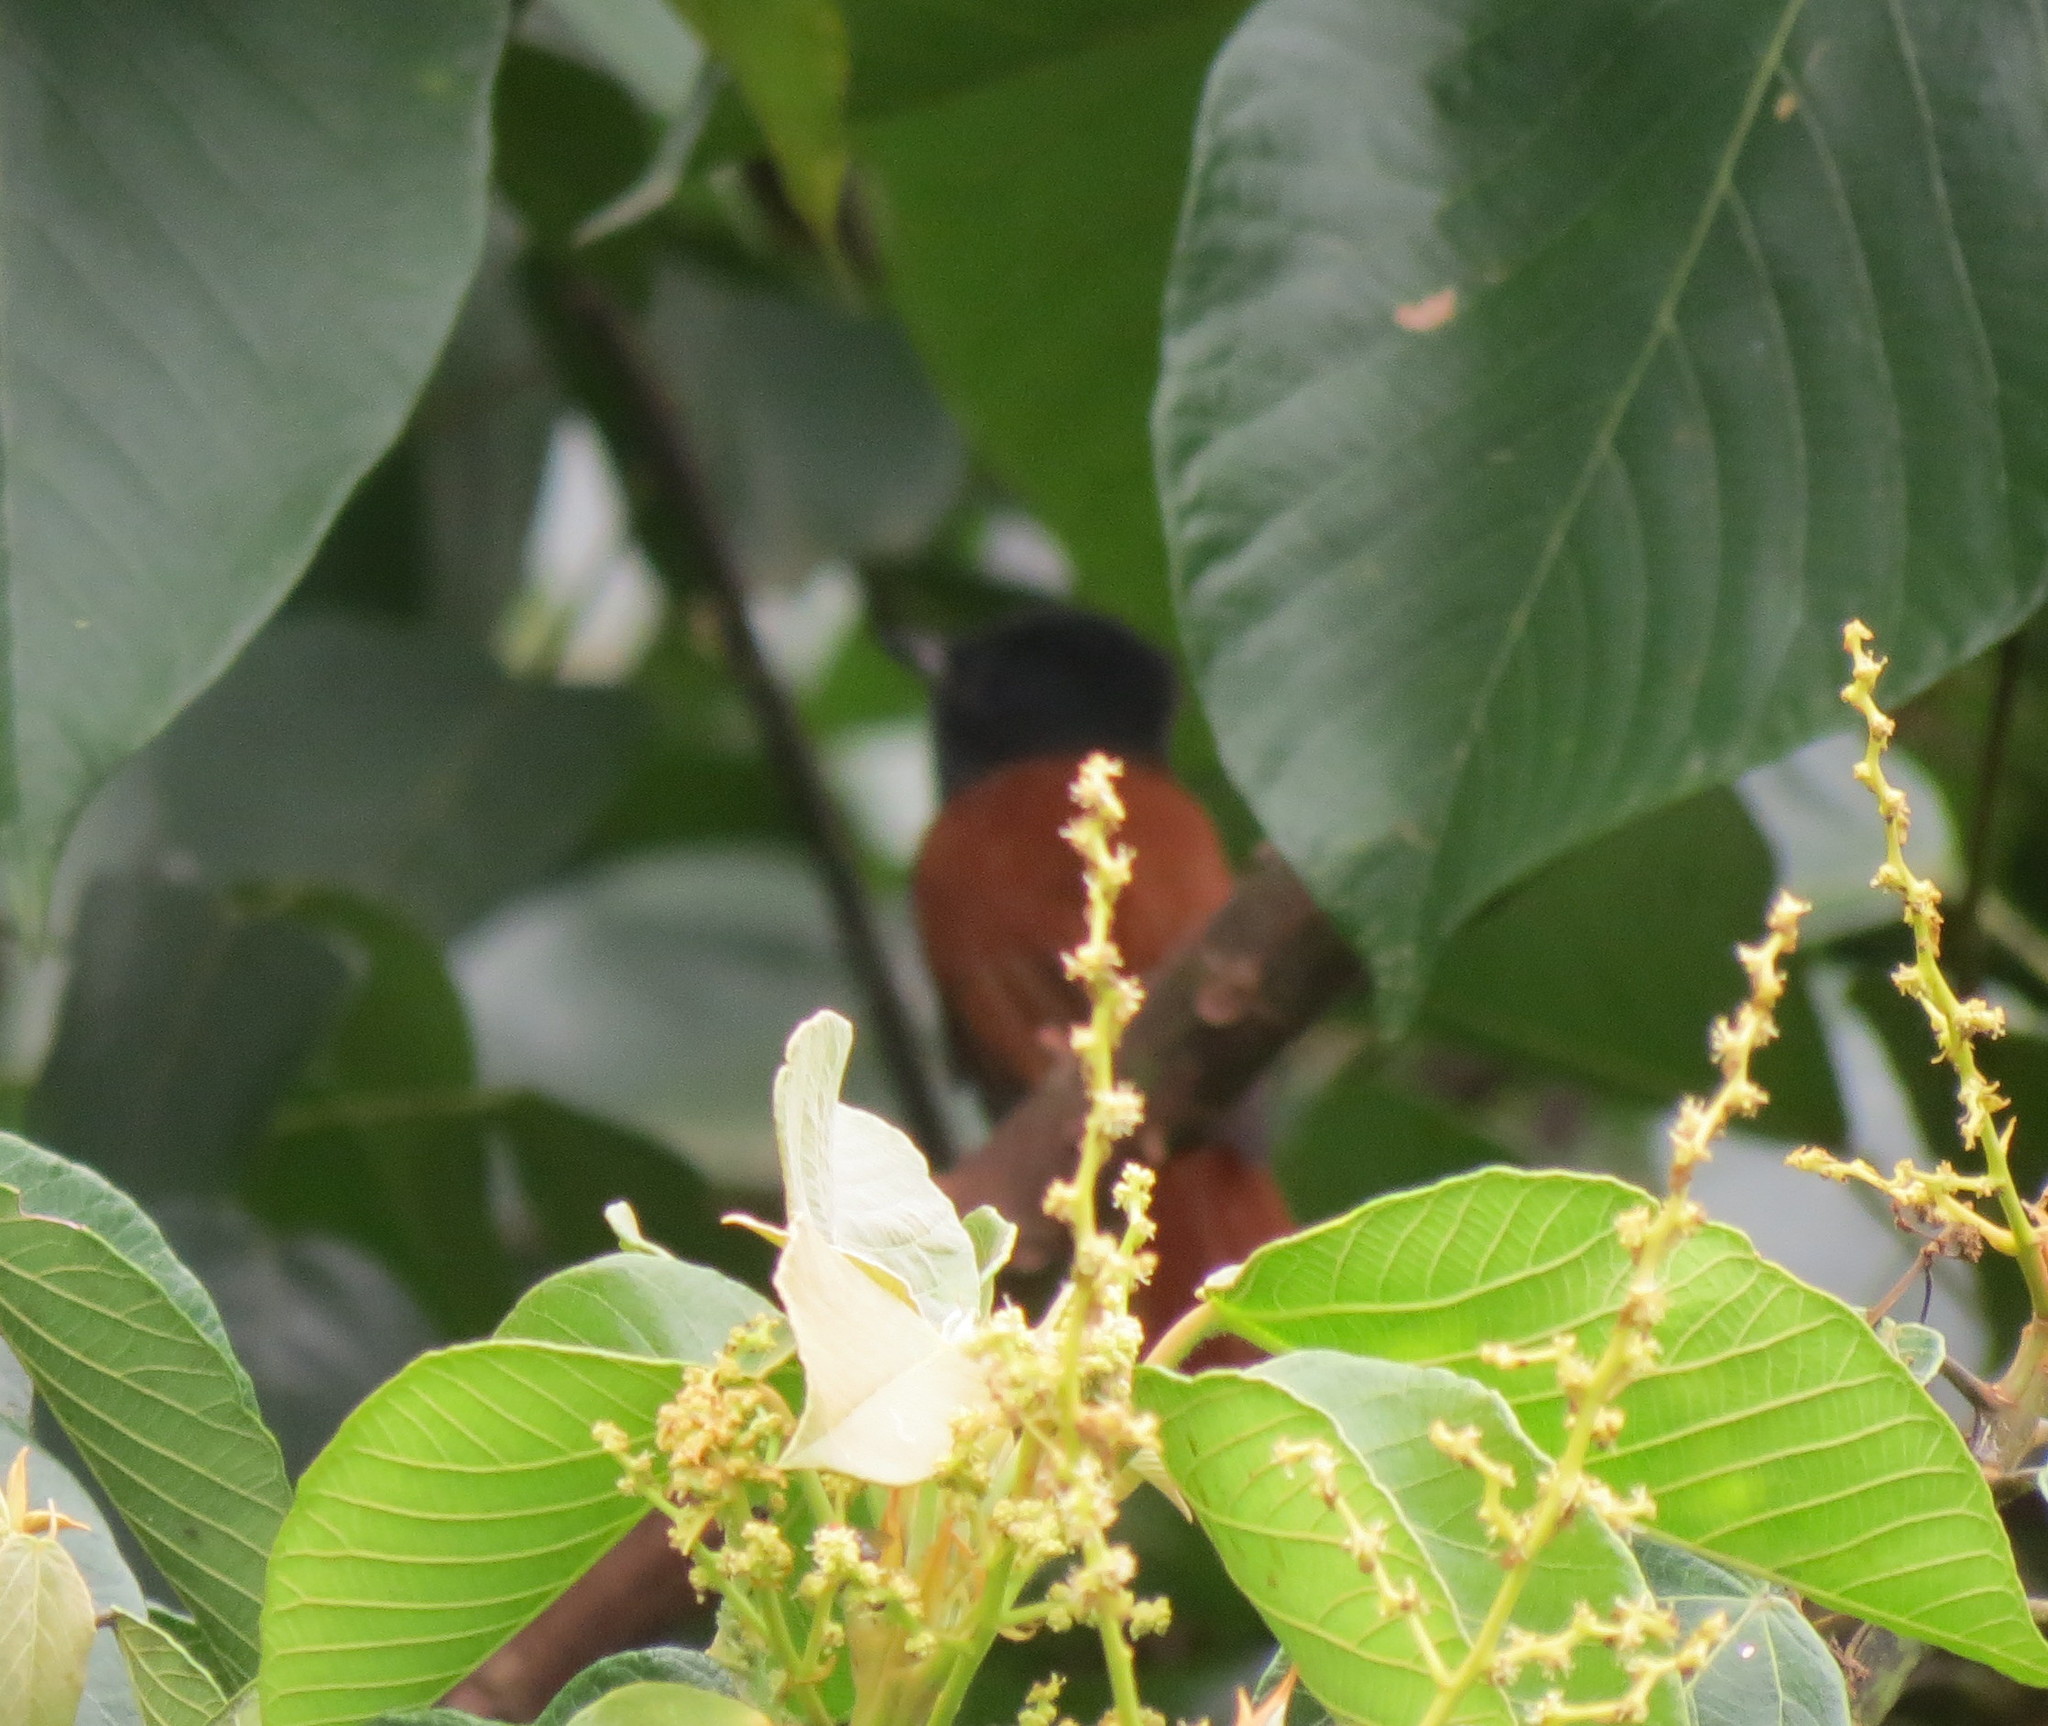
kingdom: Animalia
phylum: Chordata
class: Aves
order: Passeriformes
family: Monarchidae
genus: Terpsiphone
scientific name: Terpsiphone viridis
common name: African paradise flycatcher
